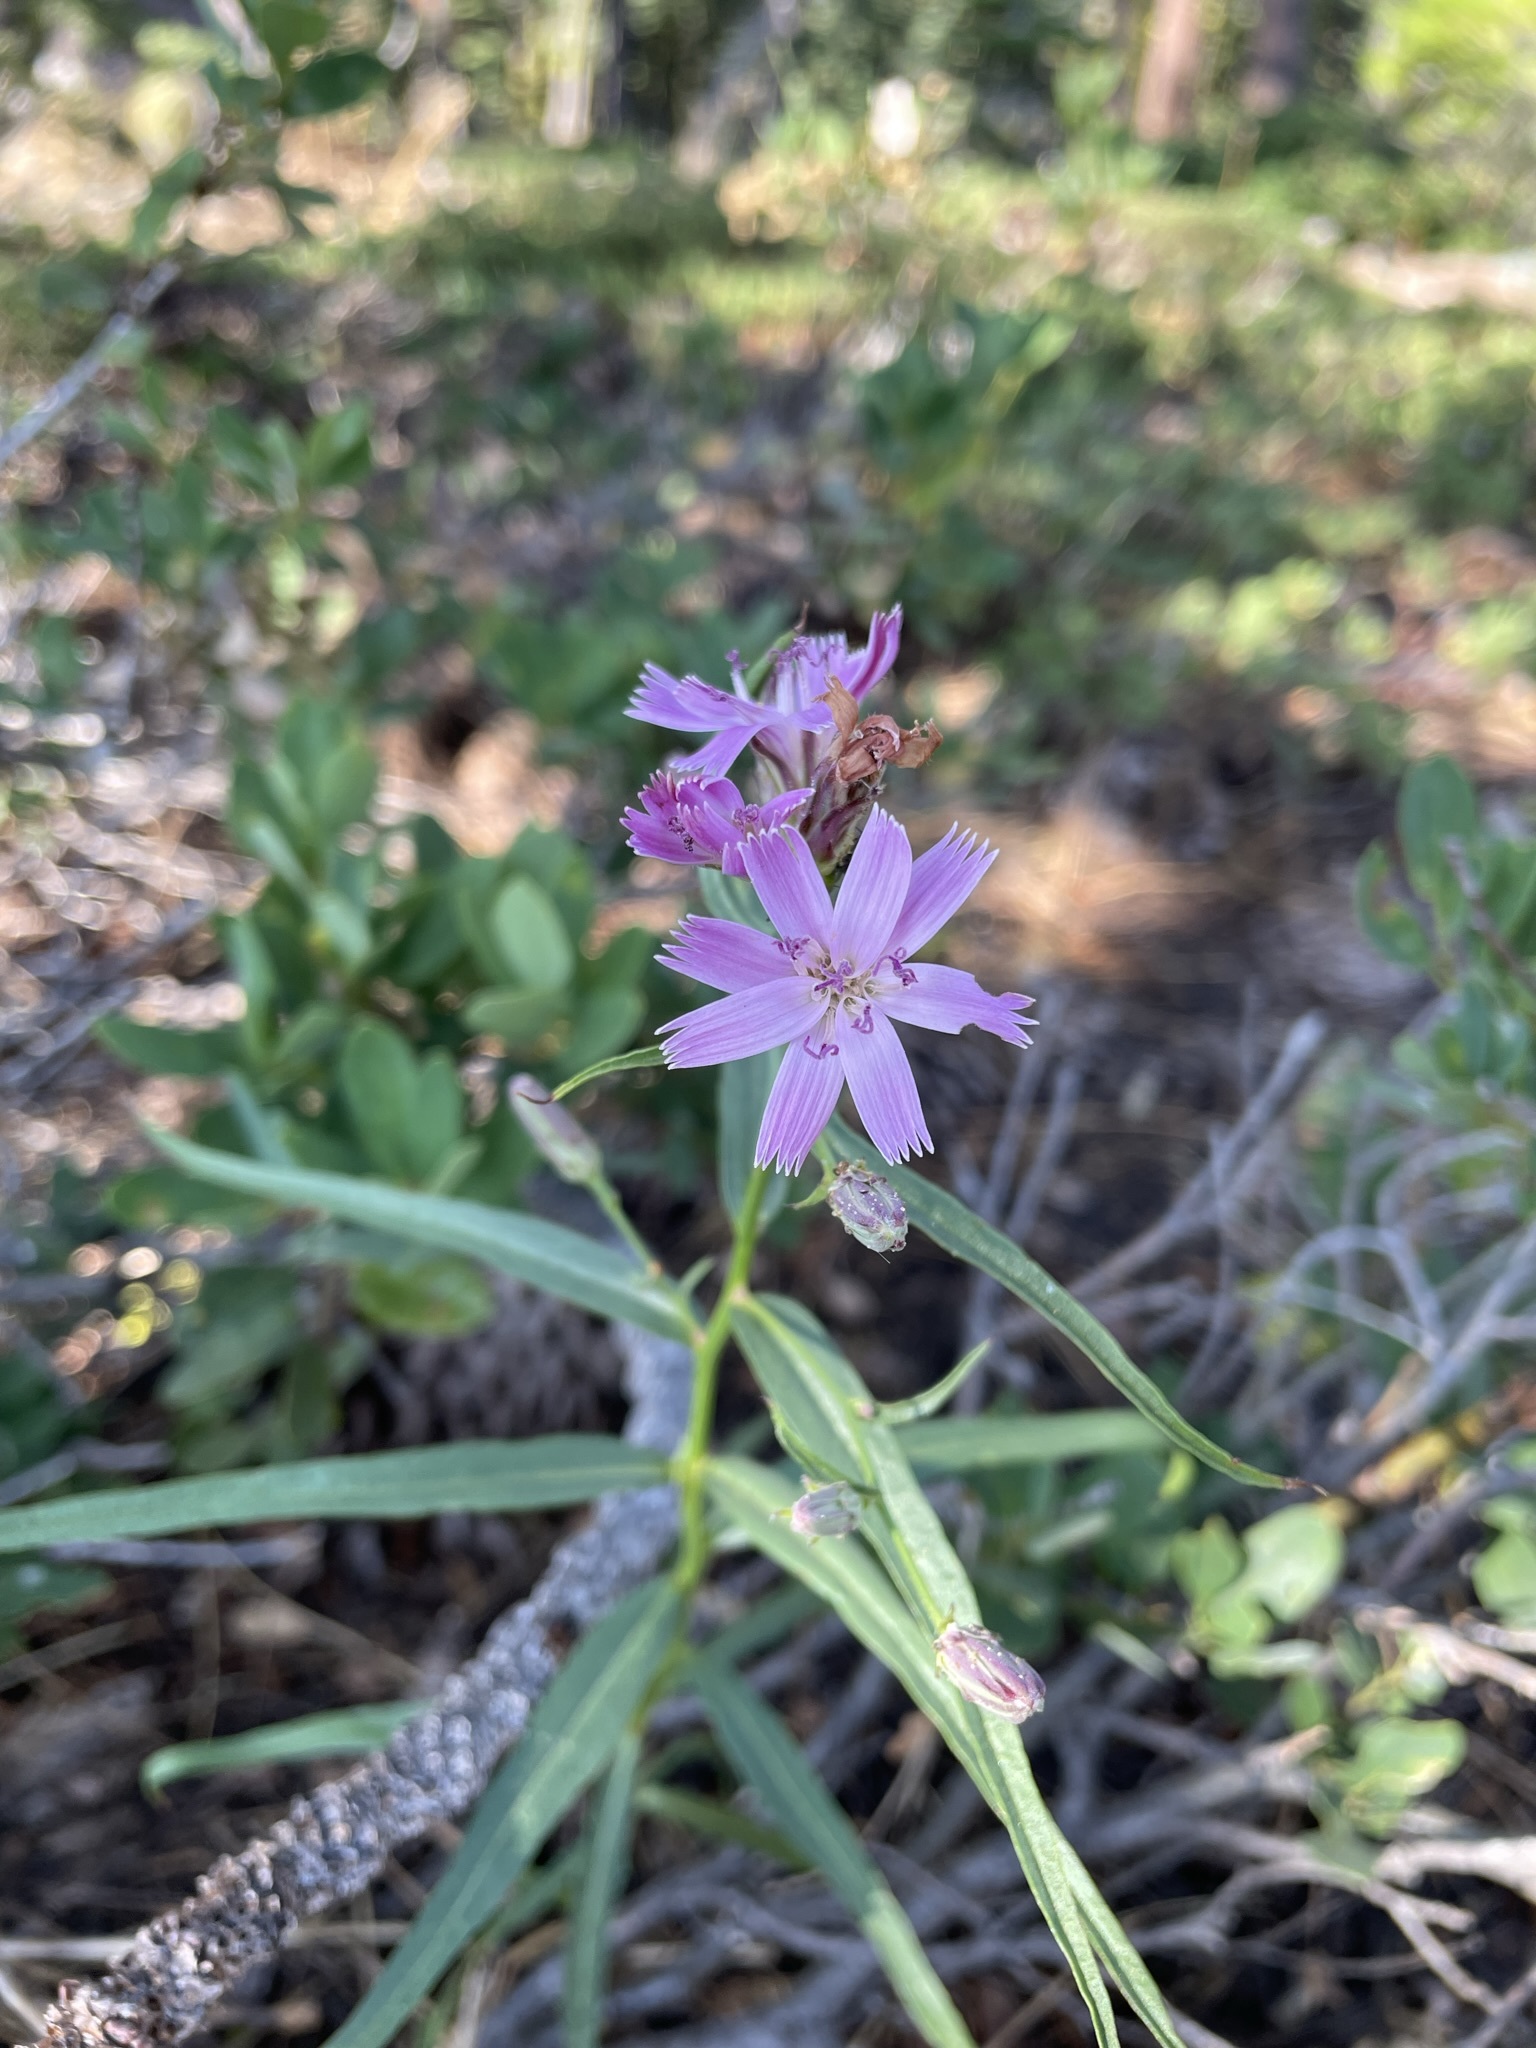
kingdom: Plantae
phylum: Tracheophyta
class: Magnoliopsida
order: Asterales
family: Asteraceae
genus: Stephanomeria
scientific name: Stephanomeria lactucina
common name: Large-flowered wirelettuce
